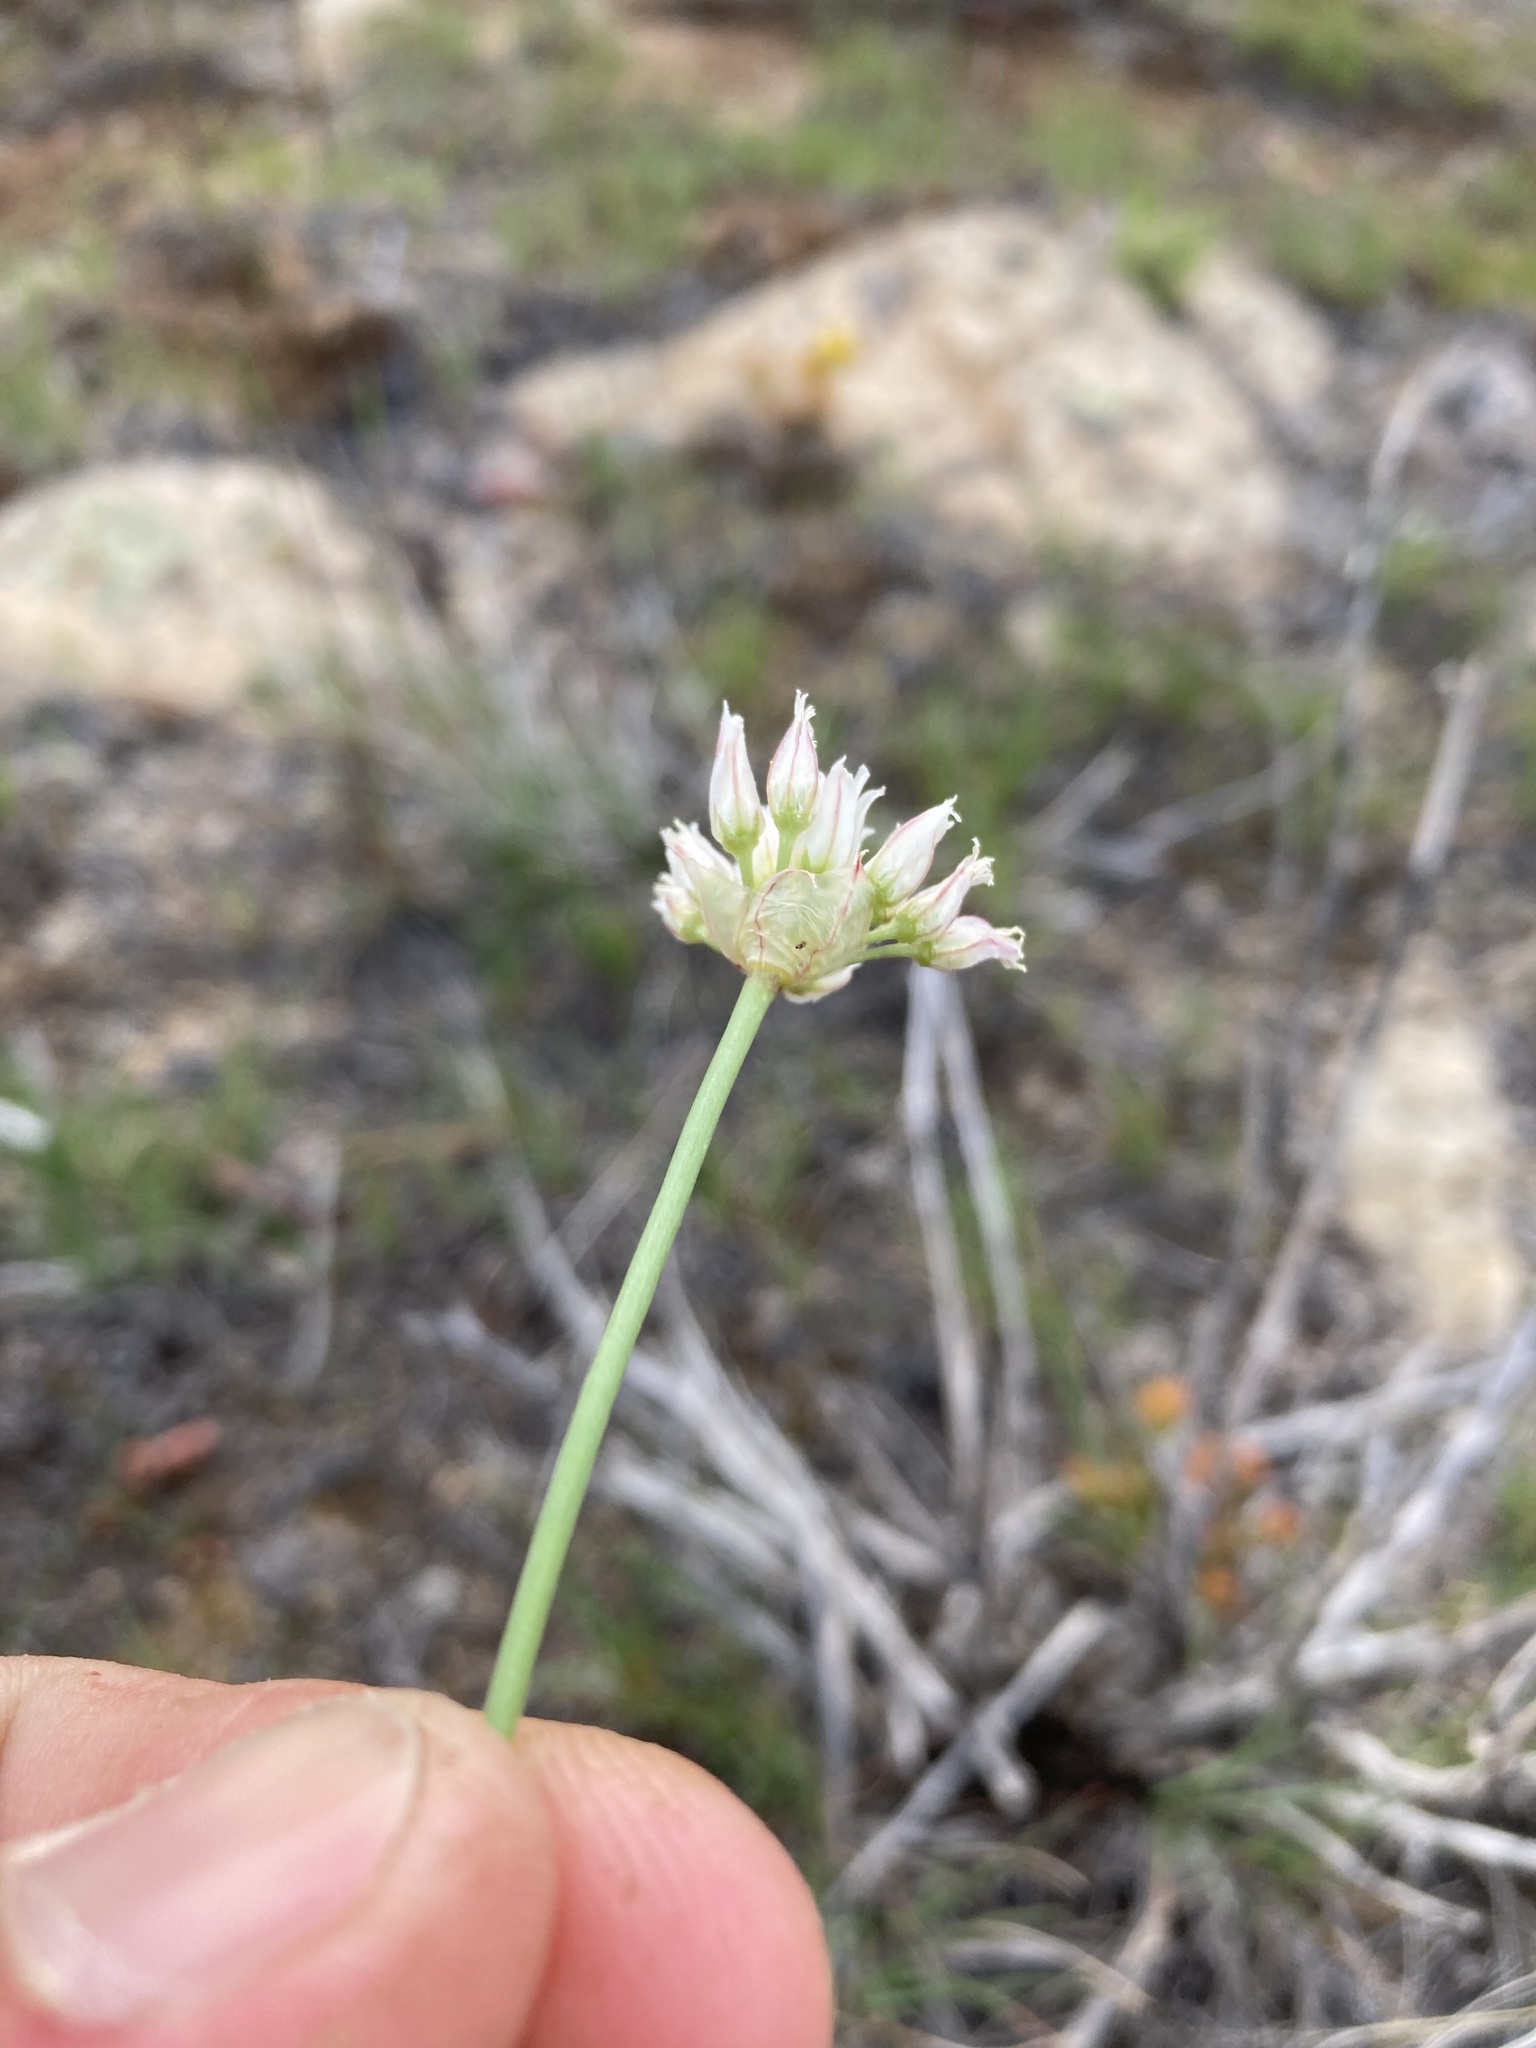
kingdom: Plantae
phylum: Tracheophyta
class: Liliopsida
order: Asparagales
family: Amaryllidaceae
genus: Allium
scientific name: Allium textile
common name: Prairie onion
